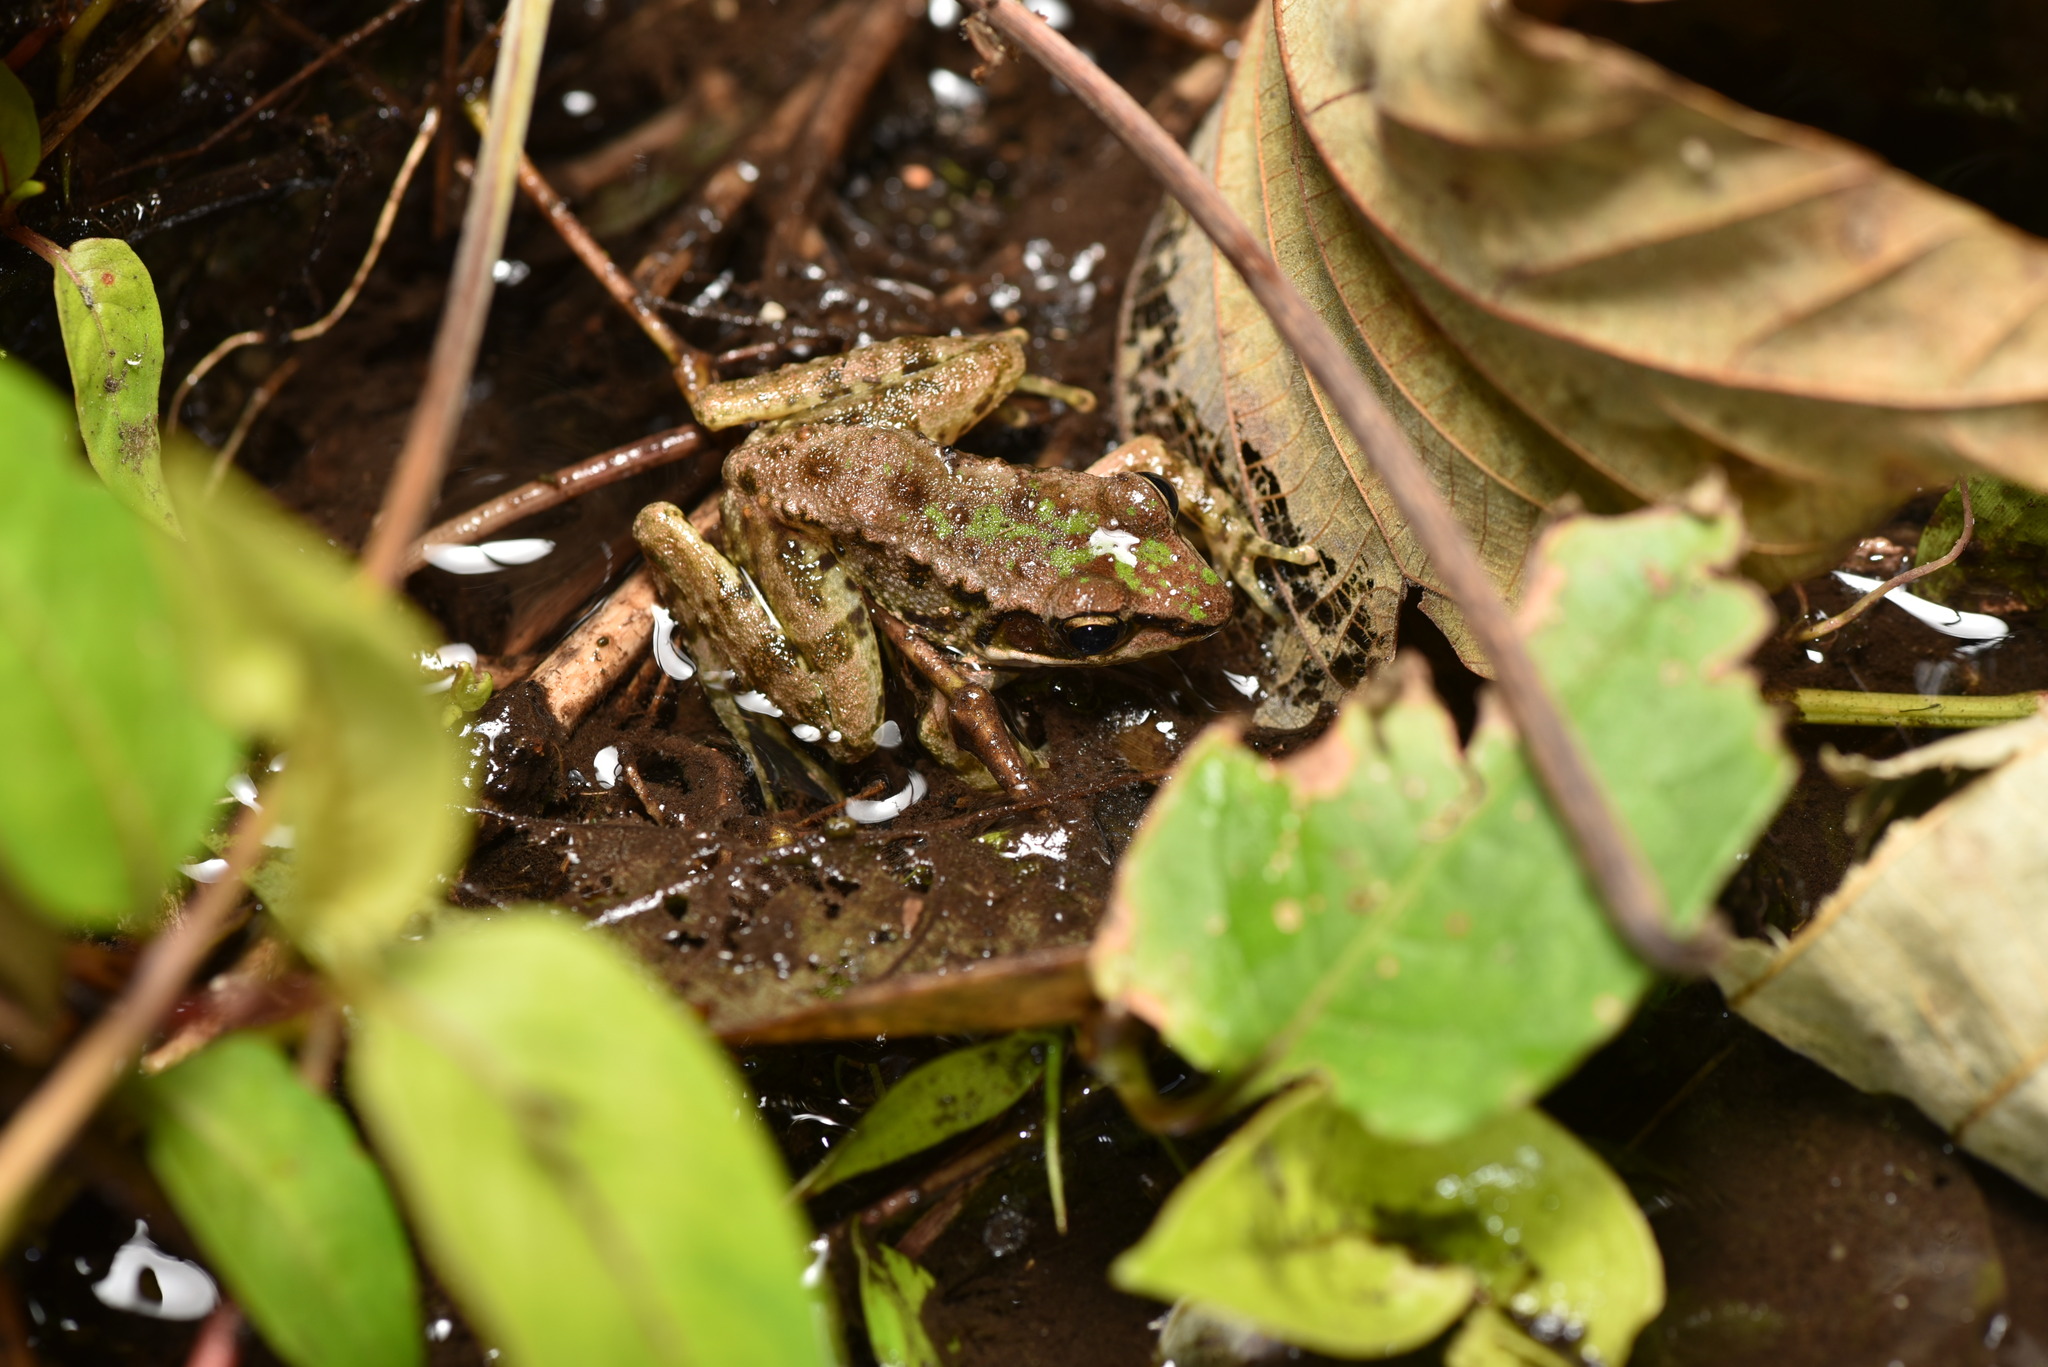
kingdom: Animalia
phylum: Chordata
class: Amphibia
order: Anura
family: Ranidae
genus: Odorrana
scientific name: Odorrana swinhoana
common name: Bangkimtsing frog
